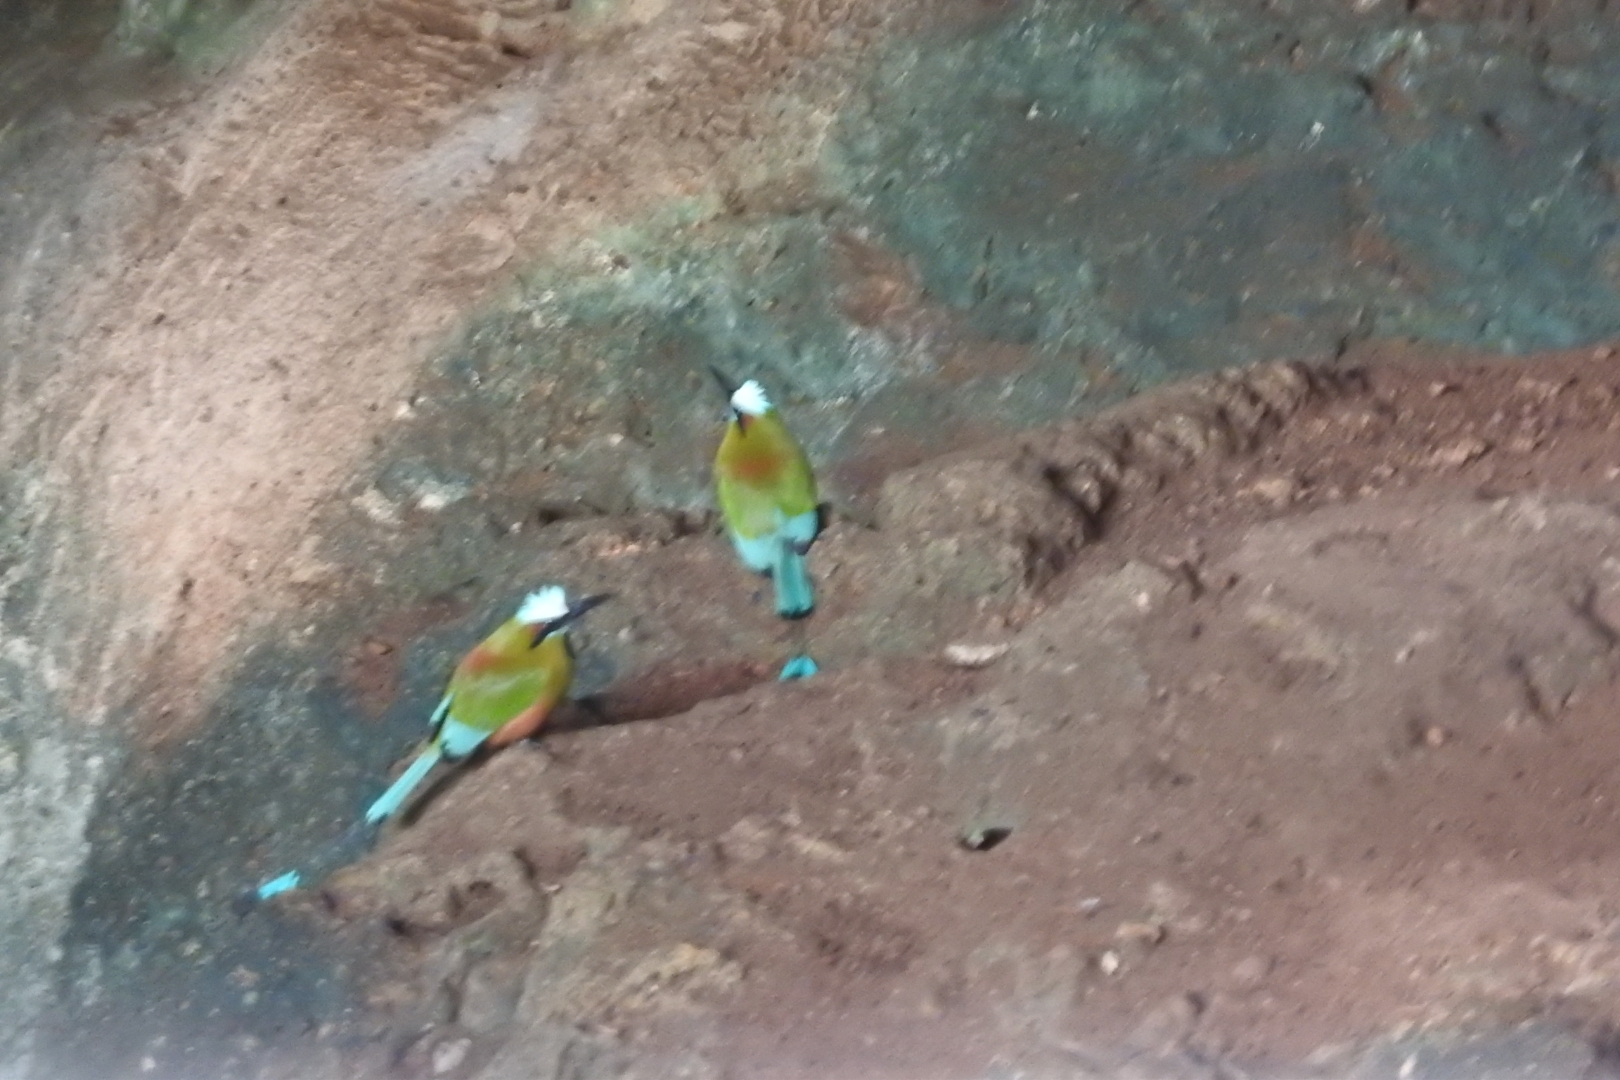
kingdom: Animalia
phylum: Chordata
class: Aves
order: Coraciiformes
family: Momotidae
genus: Eumomota
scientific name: Eumomota superciliosa
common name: Turquoise-browed motmot
